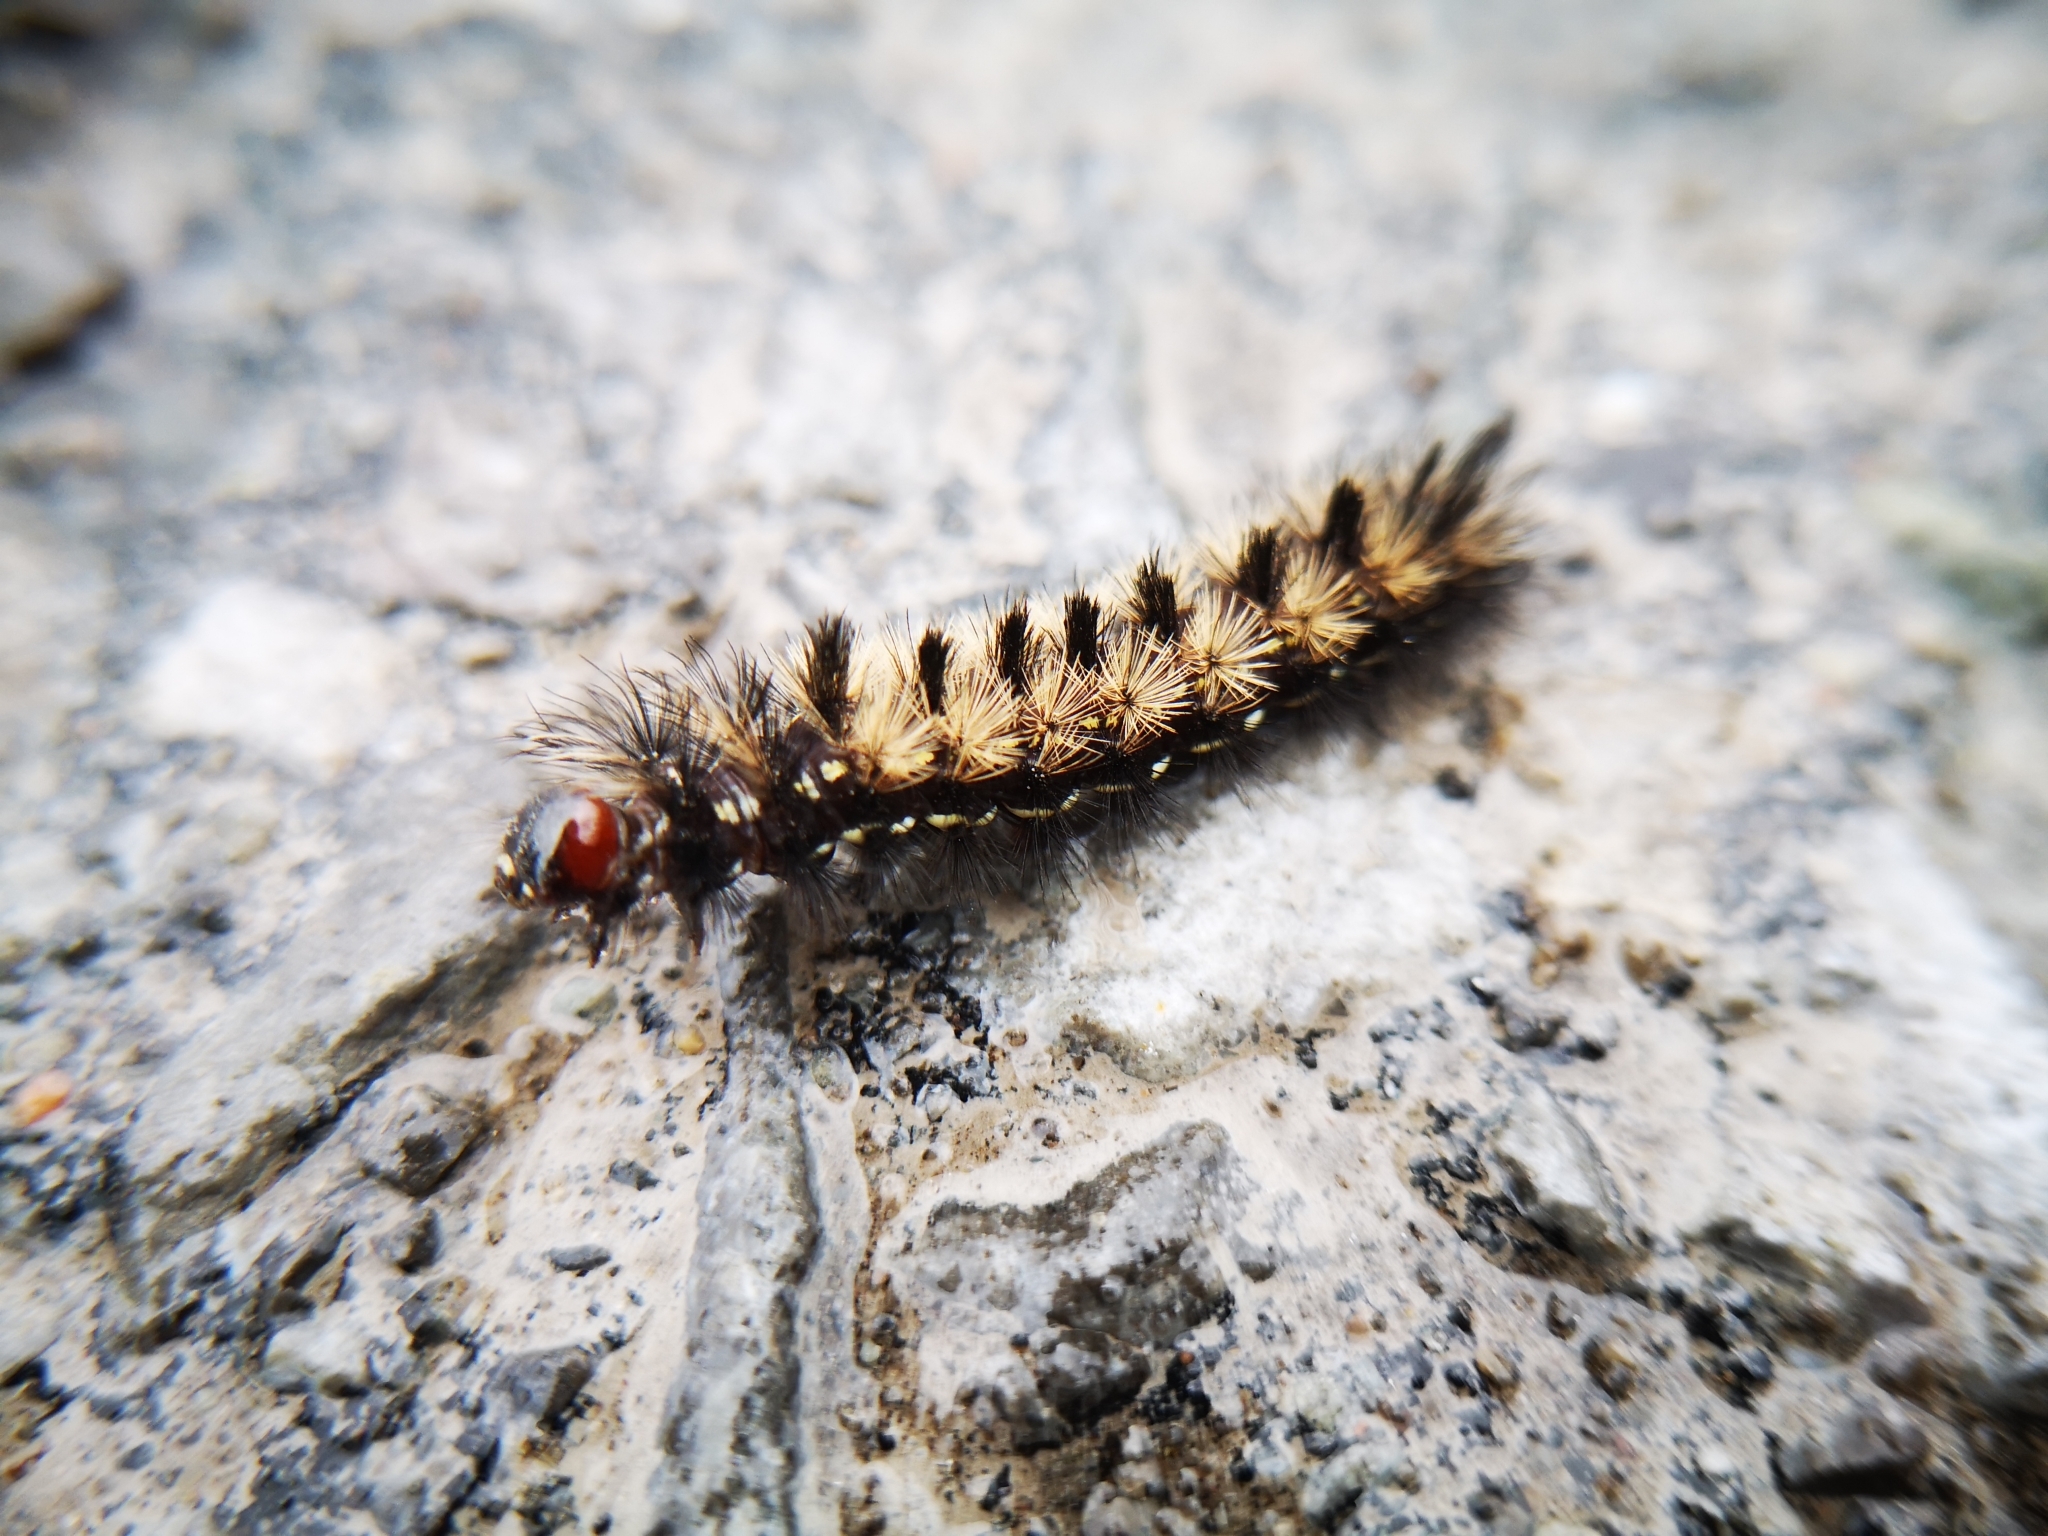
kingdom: Animalia
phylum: Arthropoda
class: Insecta
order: Lepidoptera
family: Erebidae
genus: Ctenucha
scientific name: Ctenucha virginica
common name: Virginia ctenucha moth
